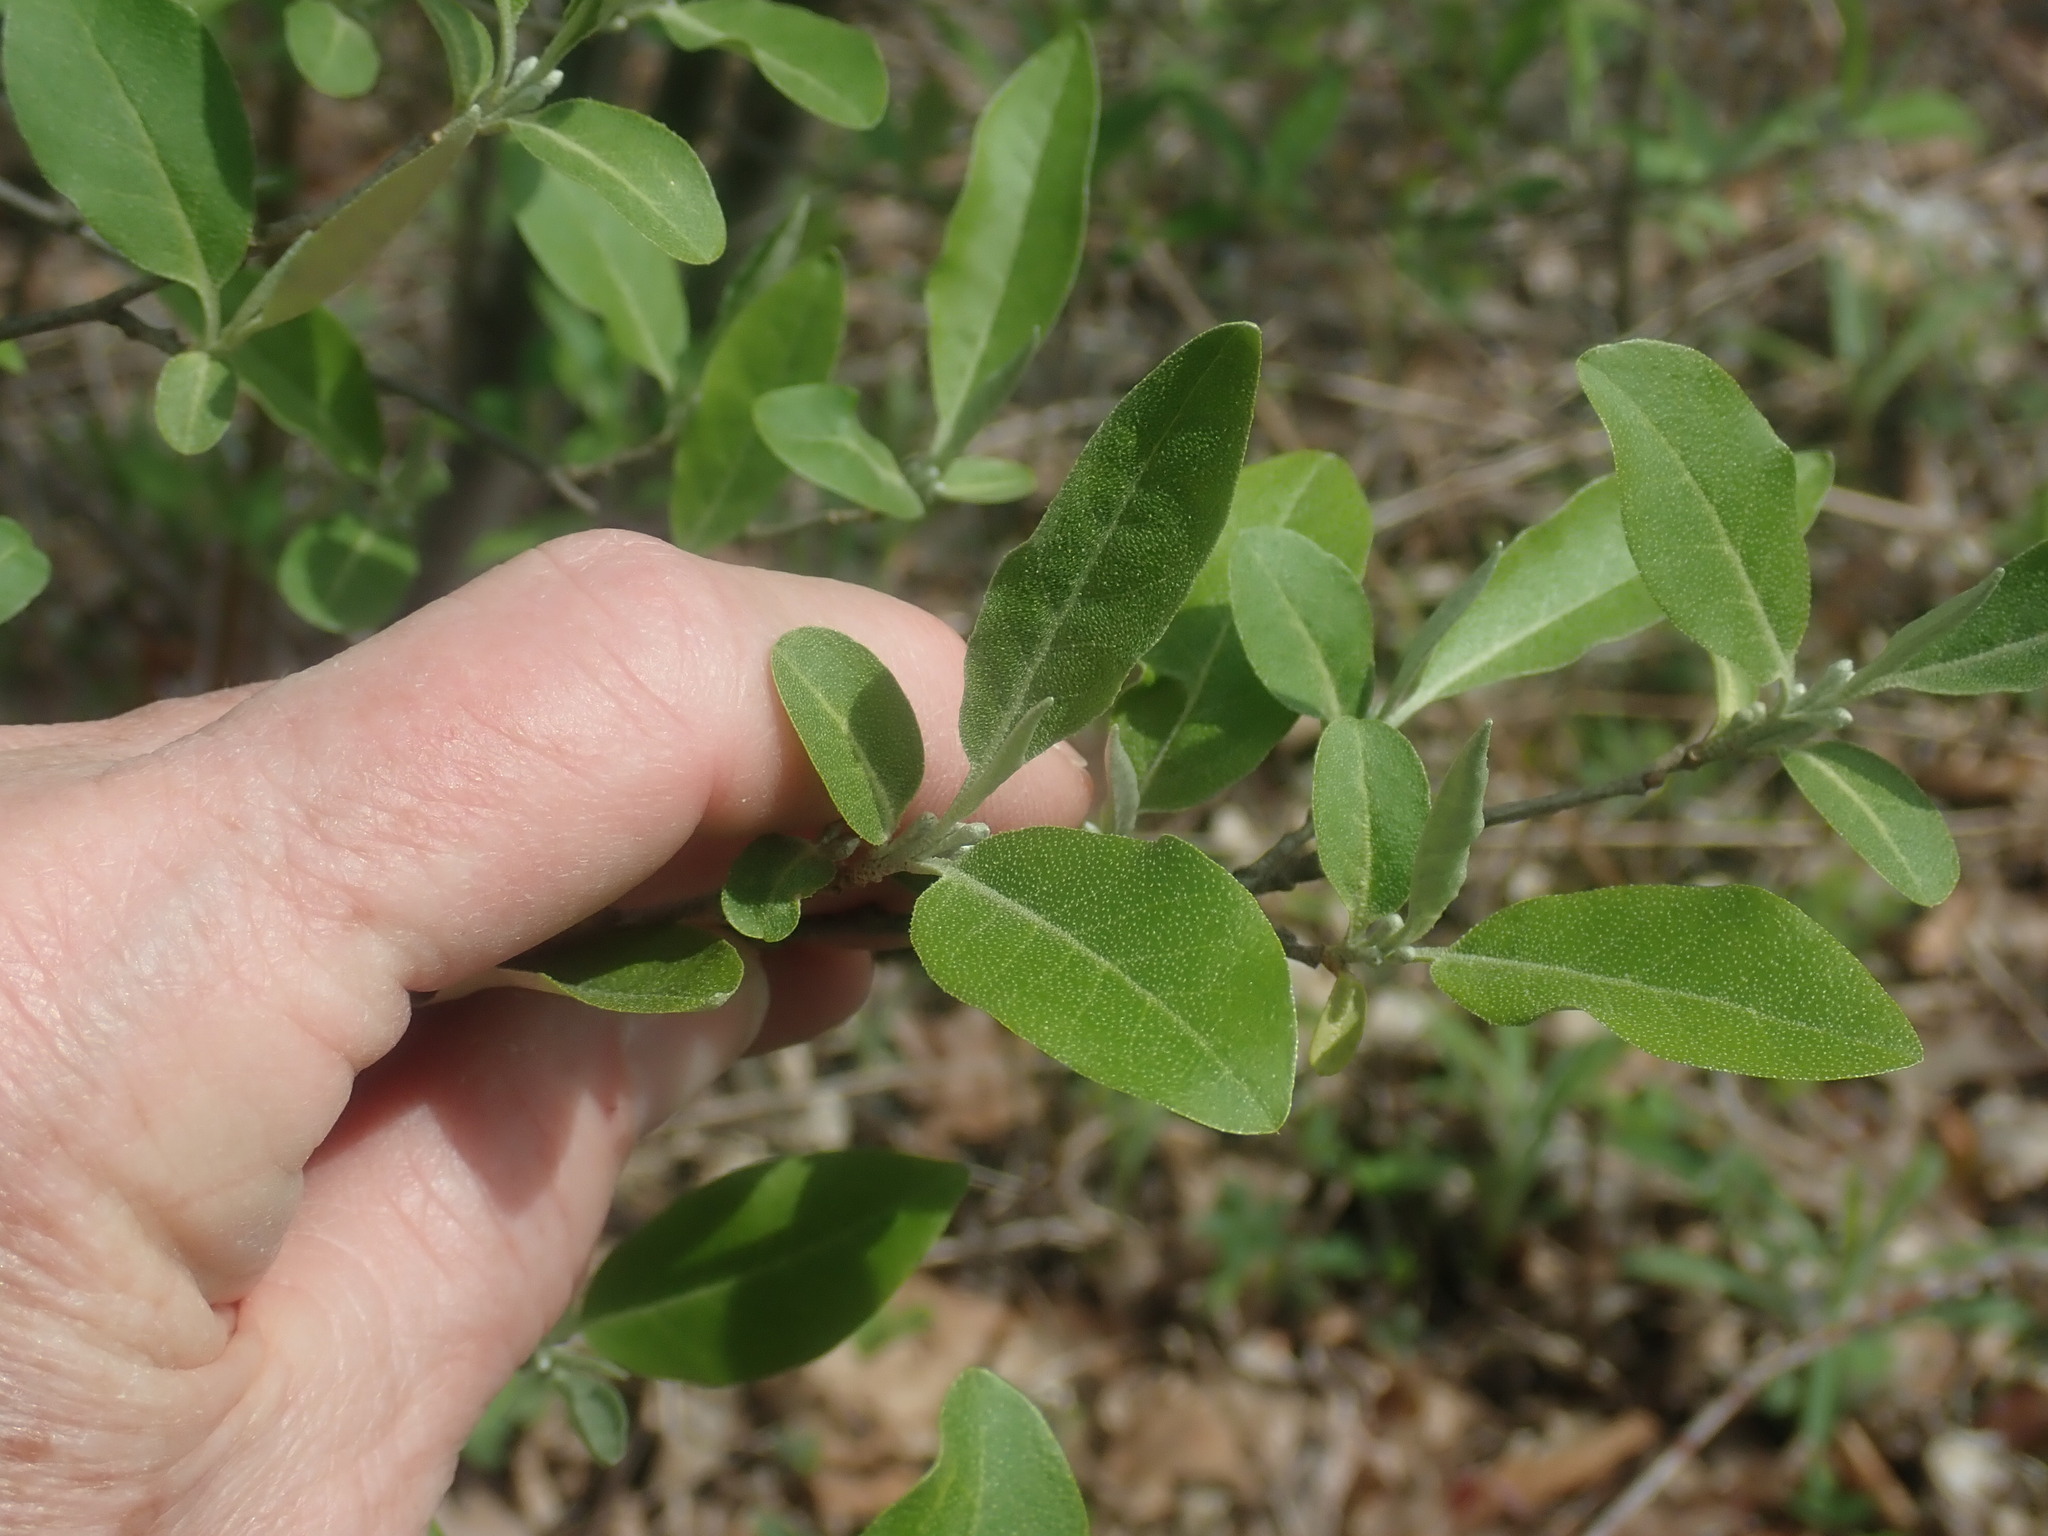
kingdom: Plantae
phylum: Tracheophyta
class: Magnoliopsida
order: Rosales
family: Elaeagnaceae
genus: Elaeagnus
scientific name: Elaeagnus umbellata
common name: Autumn olive
